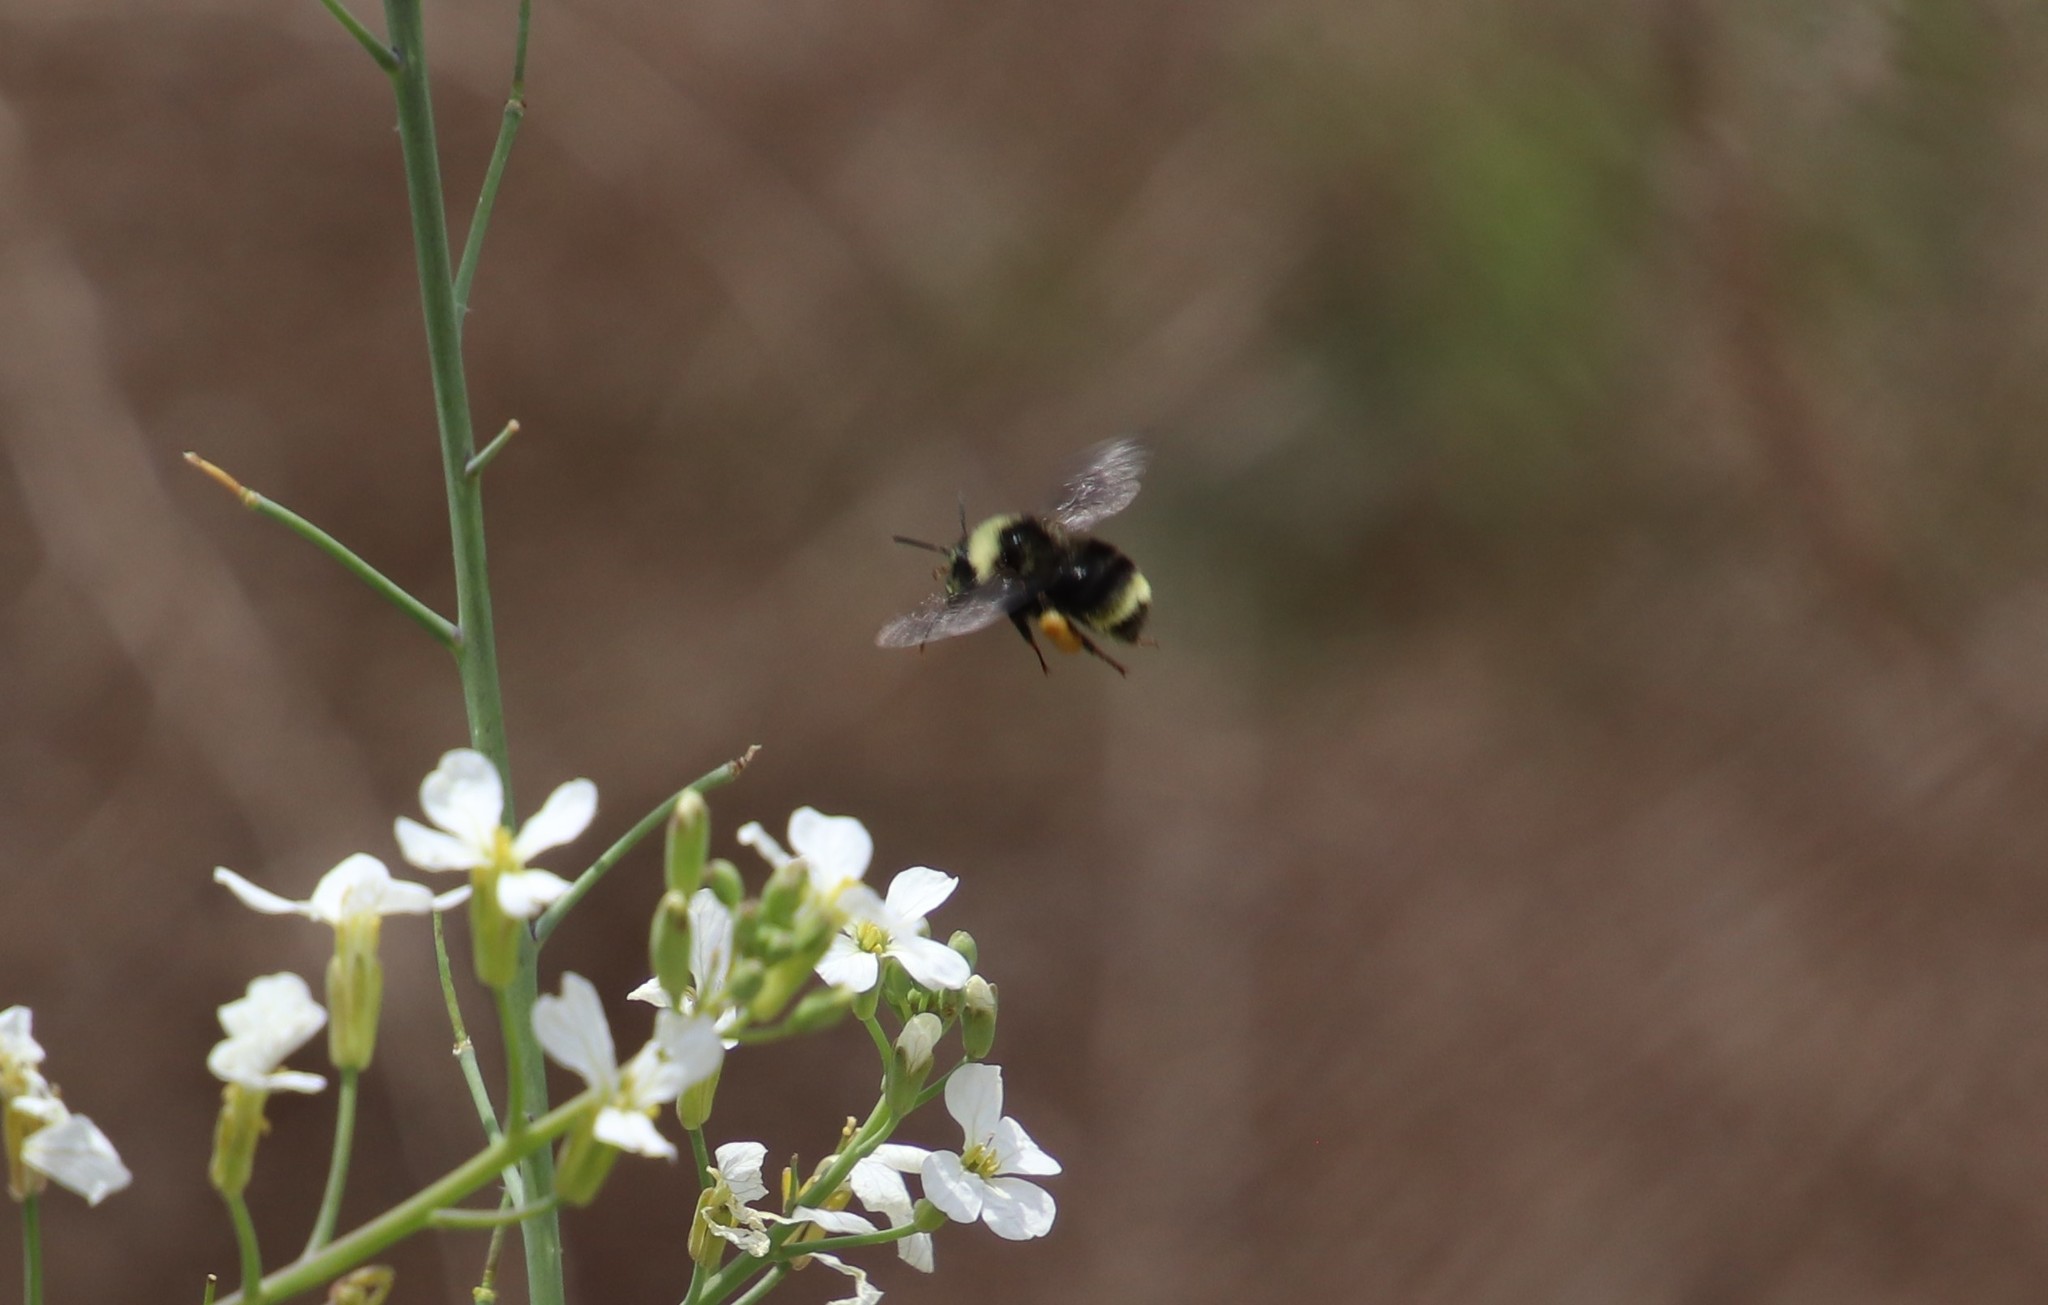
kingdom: Animalia
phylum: Arthropoda
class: Insecta
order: Hymenoptera
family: Apidae
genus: Bombus
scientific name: Bombus californicus
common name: California bumble bee
